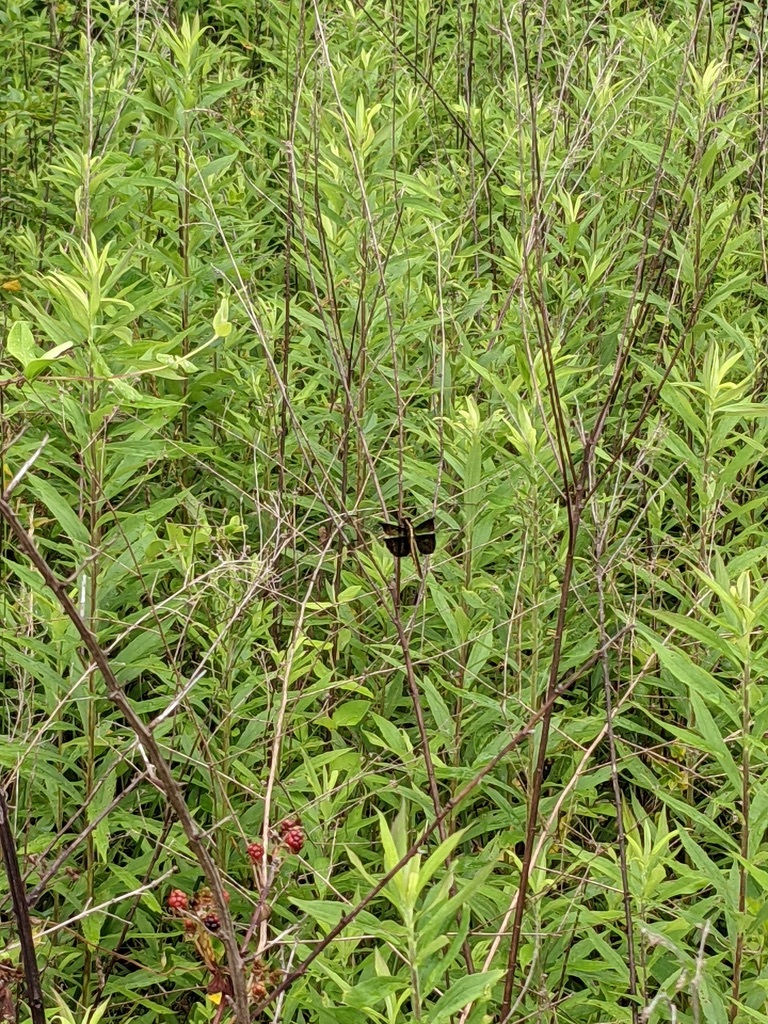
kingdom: Animalia
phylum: Arthropoda
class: Insecta
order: Odonata
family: Libellulidae
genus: Libellula
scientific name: Libellula luctuosa
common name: Widow skimmer
